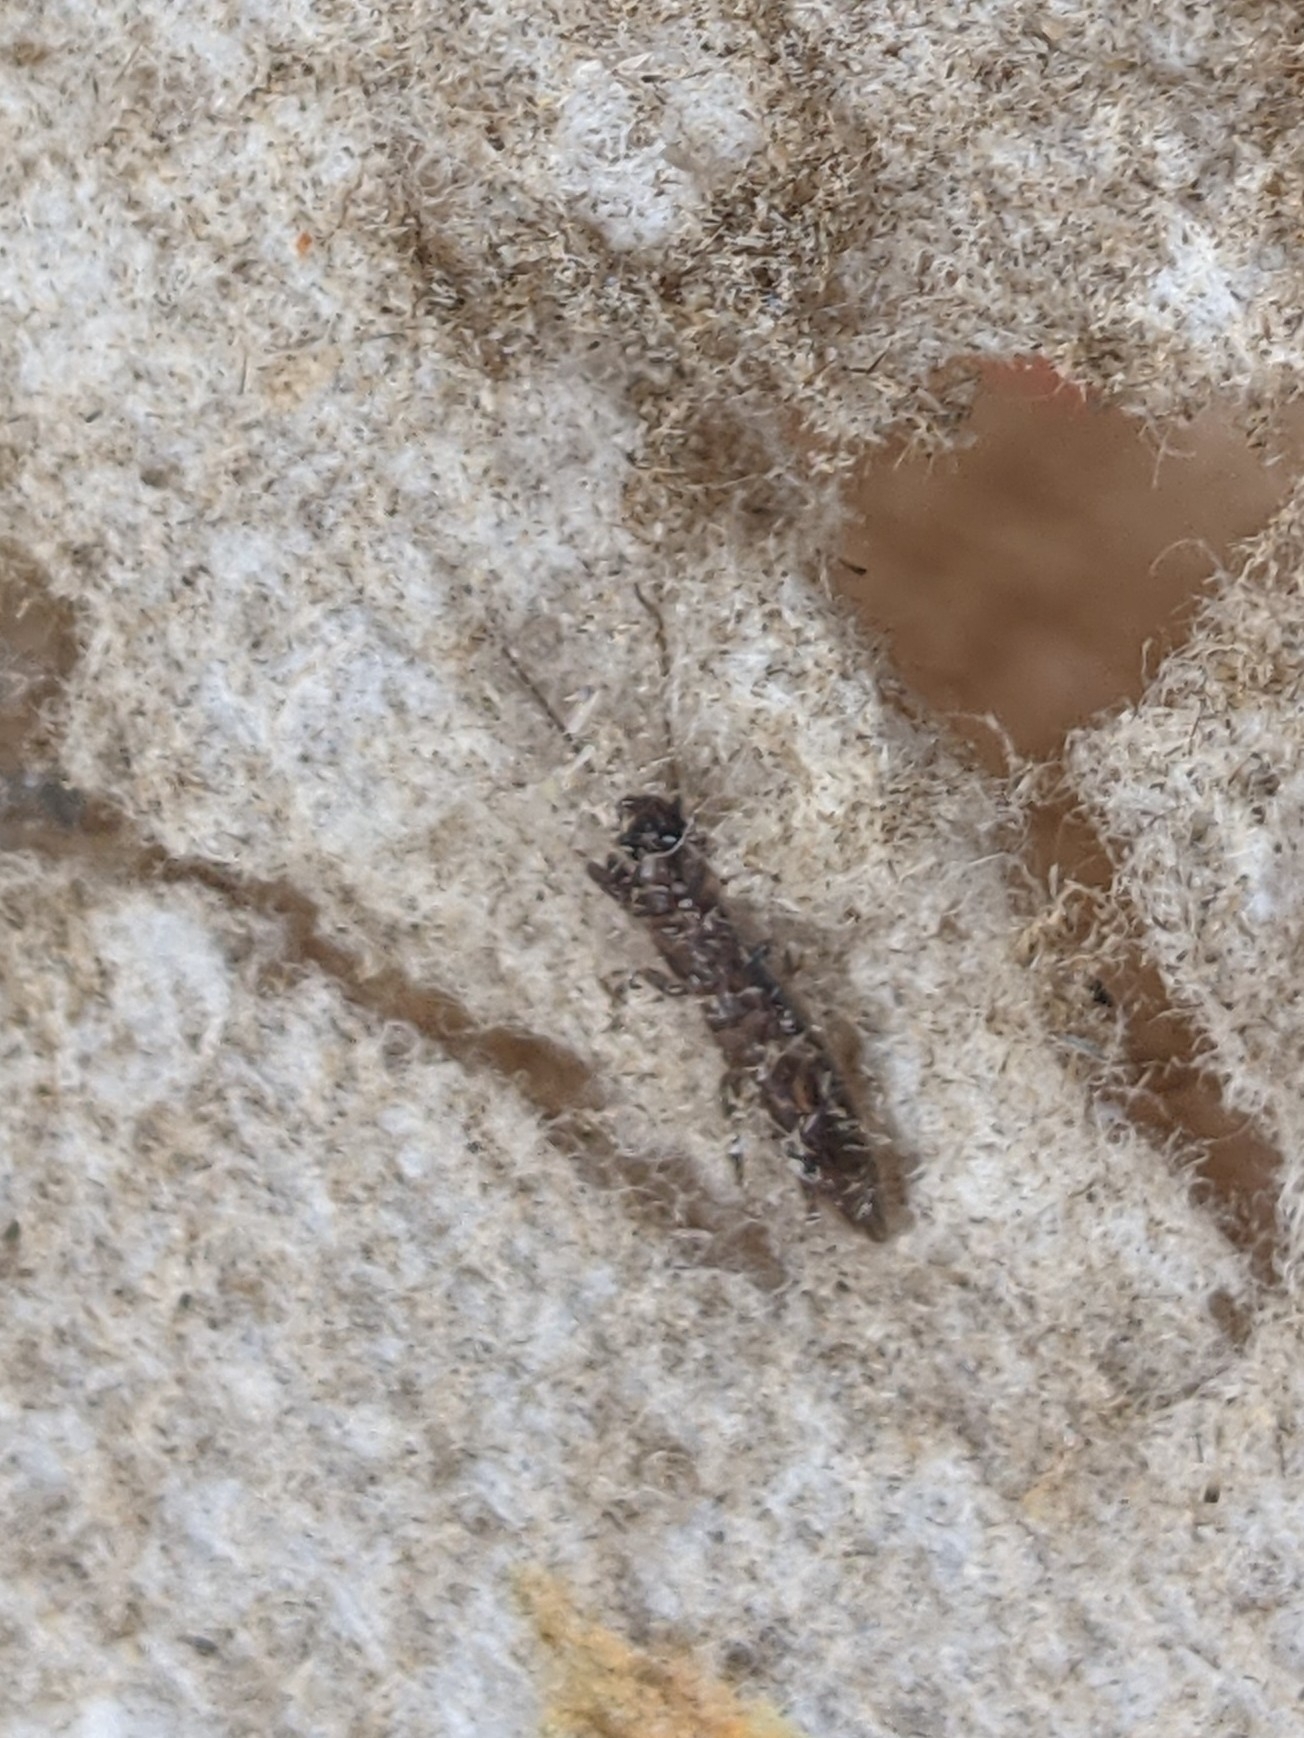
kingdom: Animalia
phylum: Arthropoda
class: Insecta
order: Embioptera
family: Oligotomidae
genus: Oligotoma
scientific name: Oligotoma nigra
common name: Black webspinner
